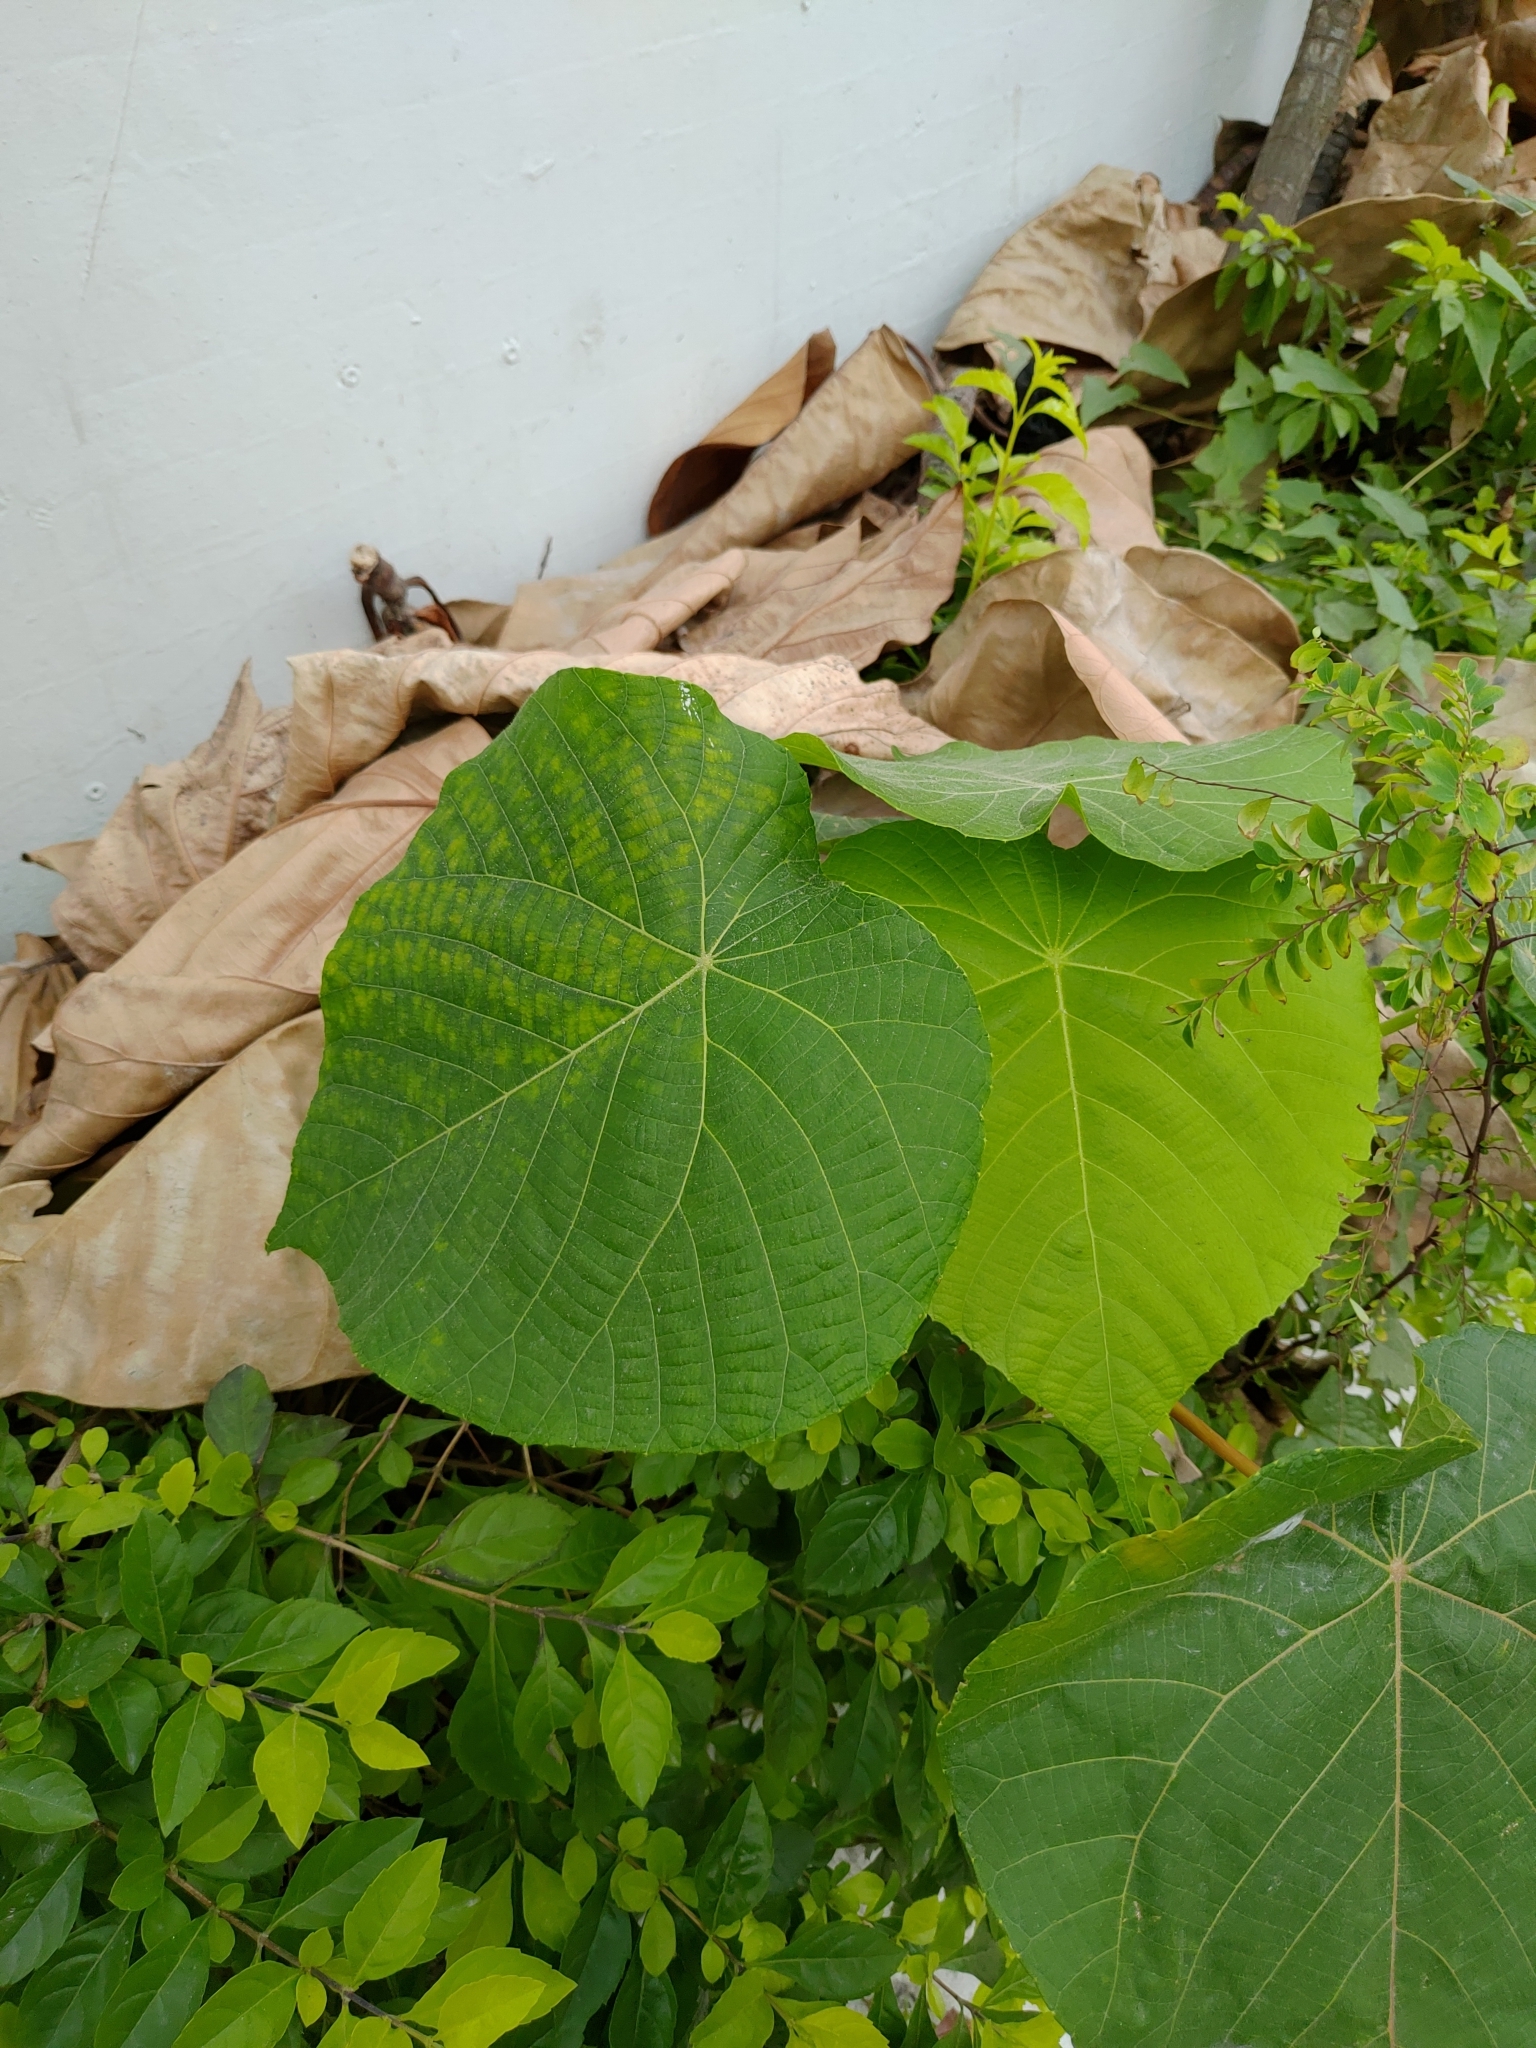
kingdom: Plantae
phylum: Tracheophyta
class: Magnoliopsida
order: Malpighiales
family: Euphorbiaceae
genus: Macaranga
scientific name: Macaranga tanarius
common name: Parasol leaf tree
